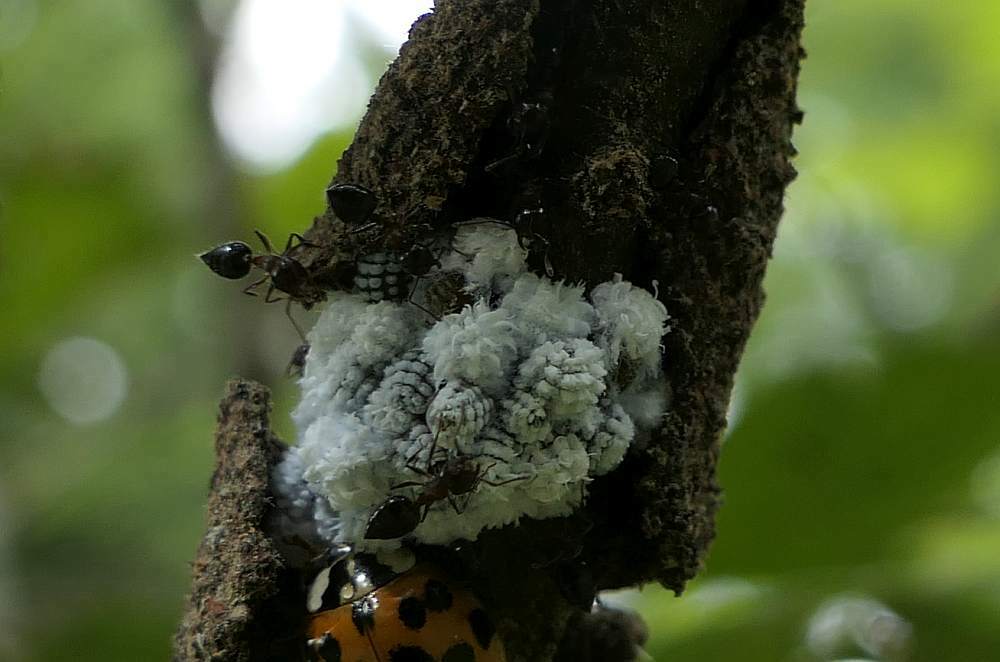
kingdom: Animalia
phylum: Arthropoda
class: Insecta
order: Hemiptera
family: Aphididae
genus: Prociphilus
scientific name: Prociphilus tessellatus
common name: Woolly alder aphid
